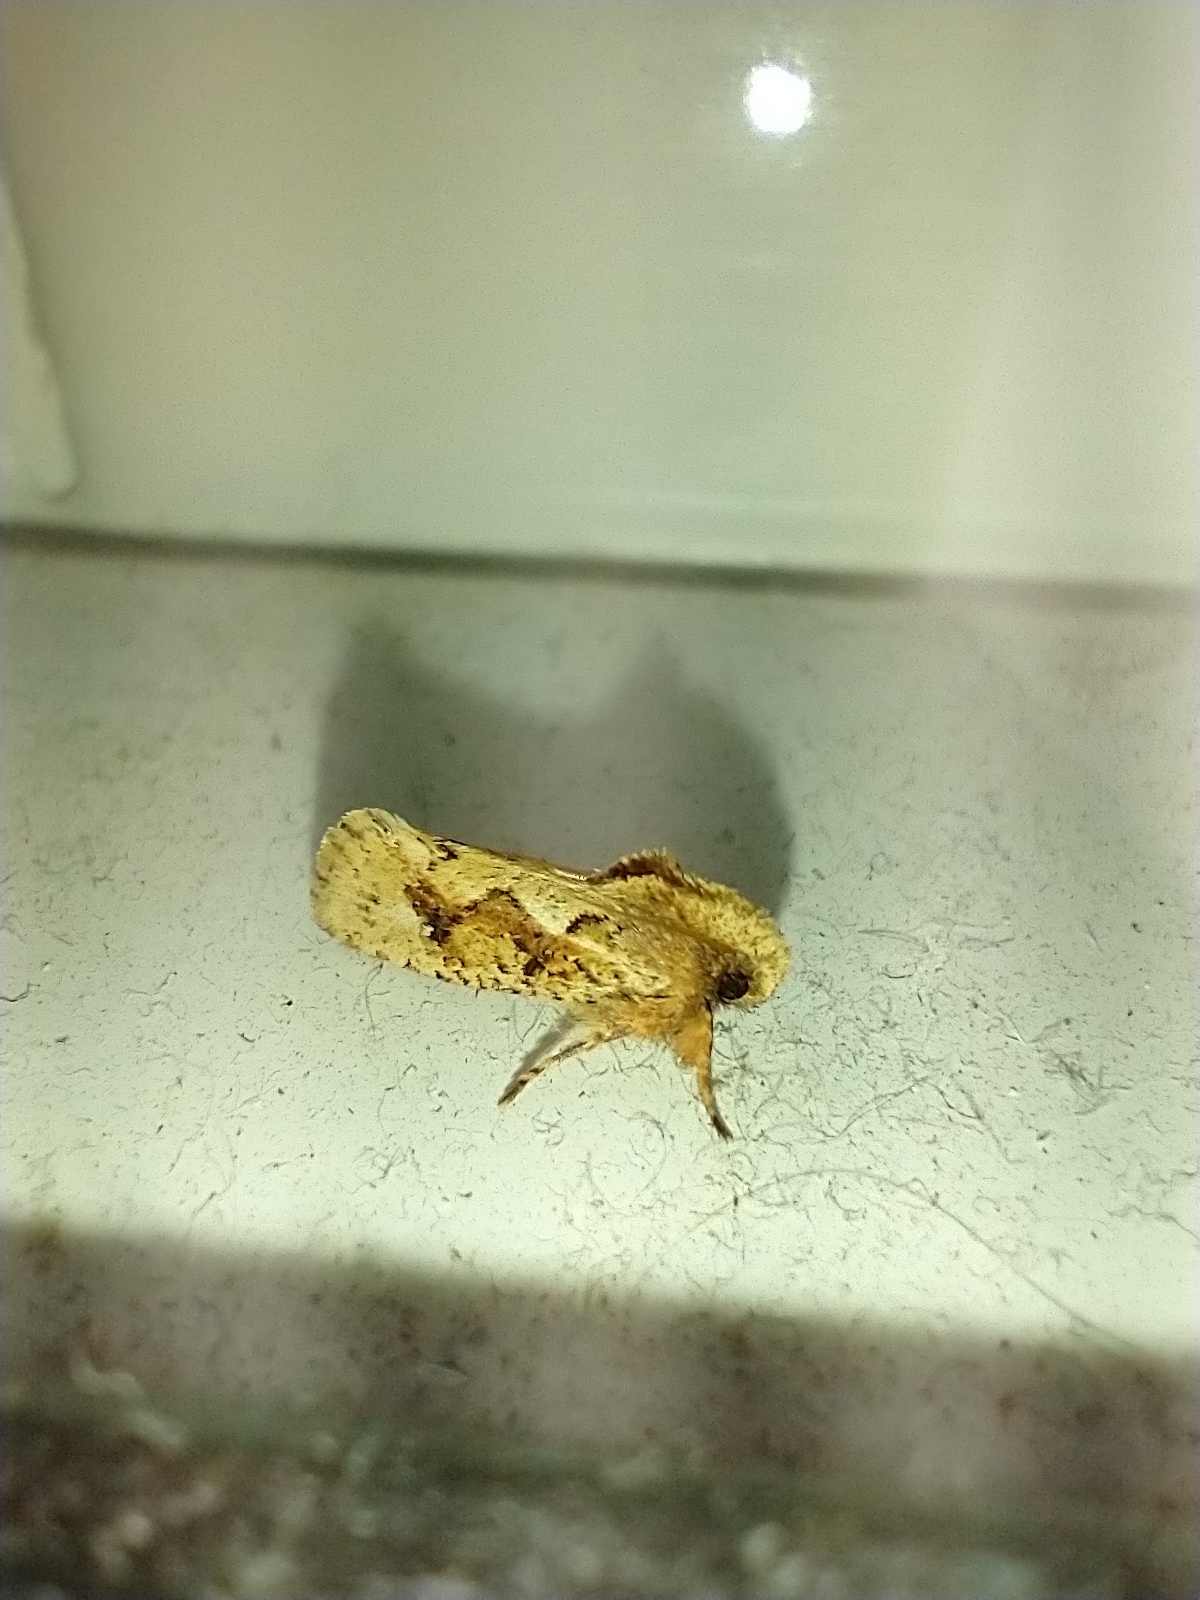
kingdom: Animalia
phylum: Arthropoda
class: Insecta
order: Lepidoptera
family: Tineidae
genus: Acrolophus
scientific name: Acrolophus walsinghami
